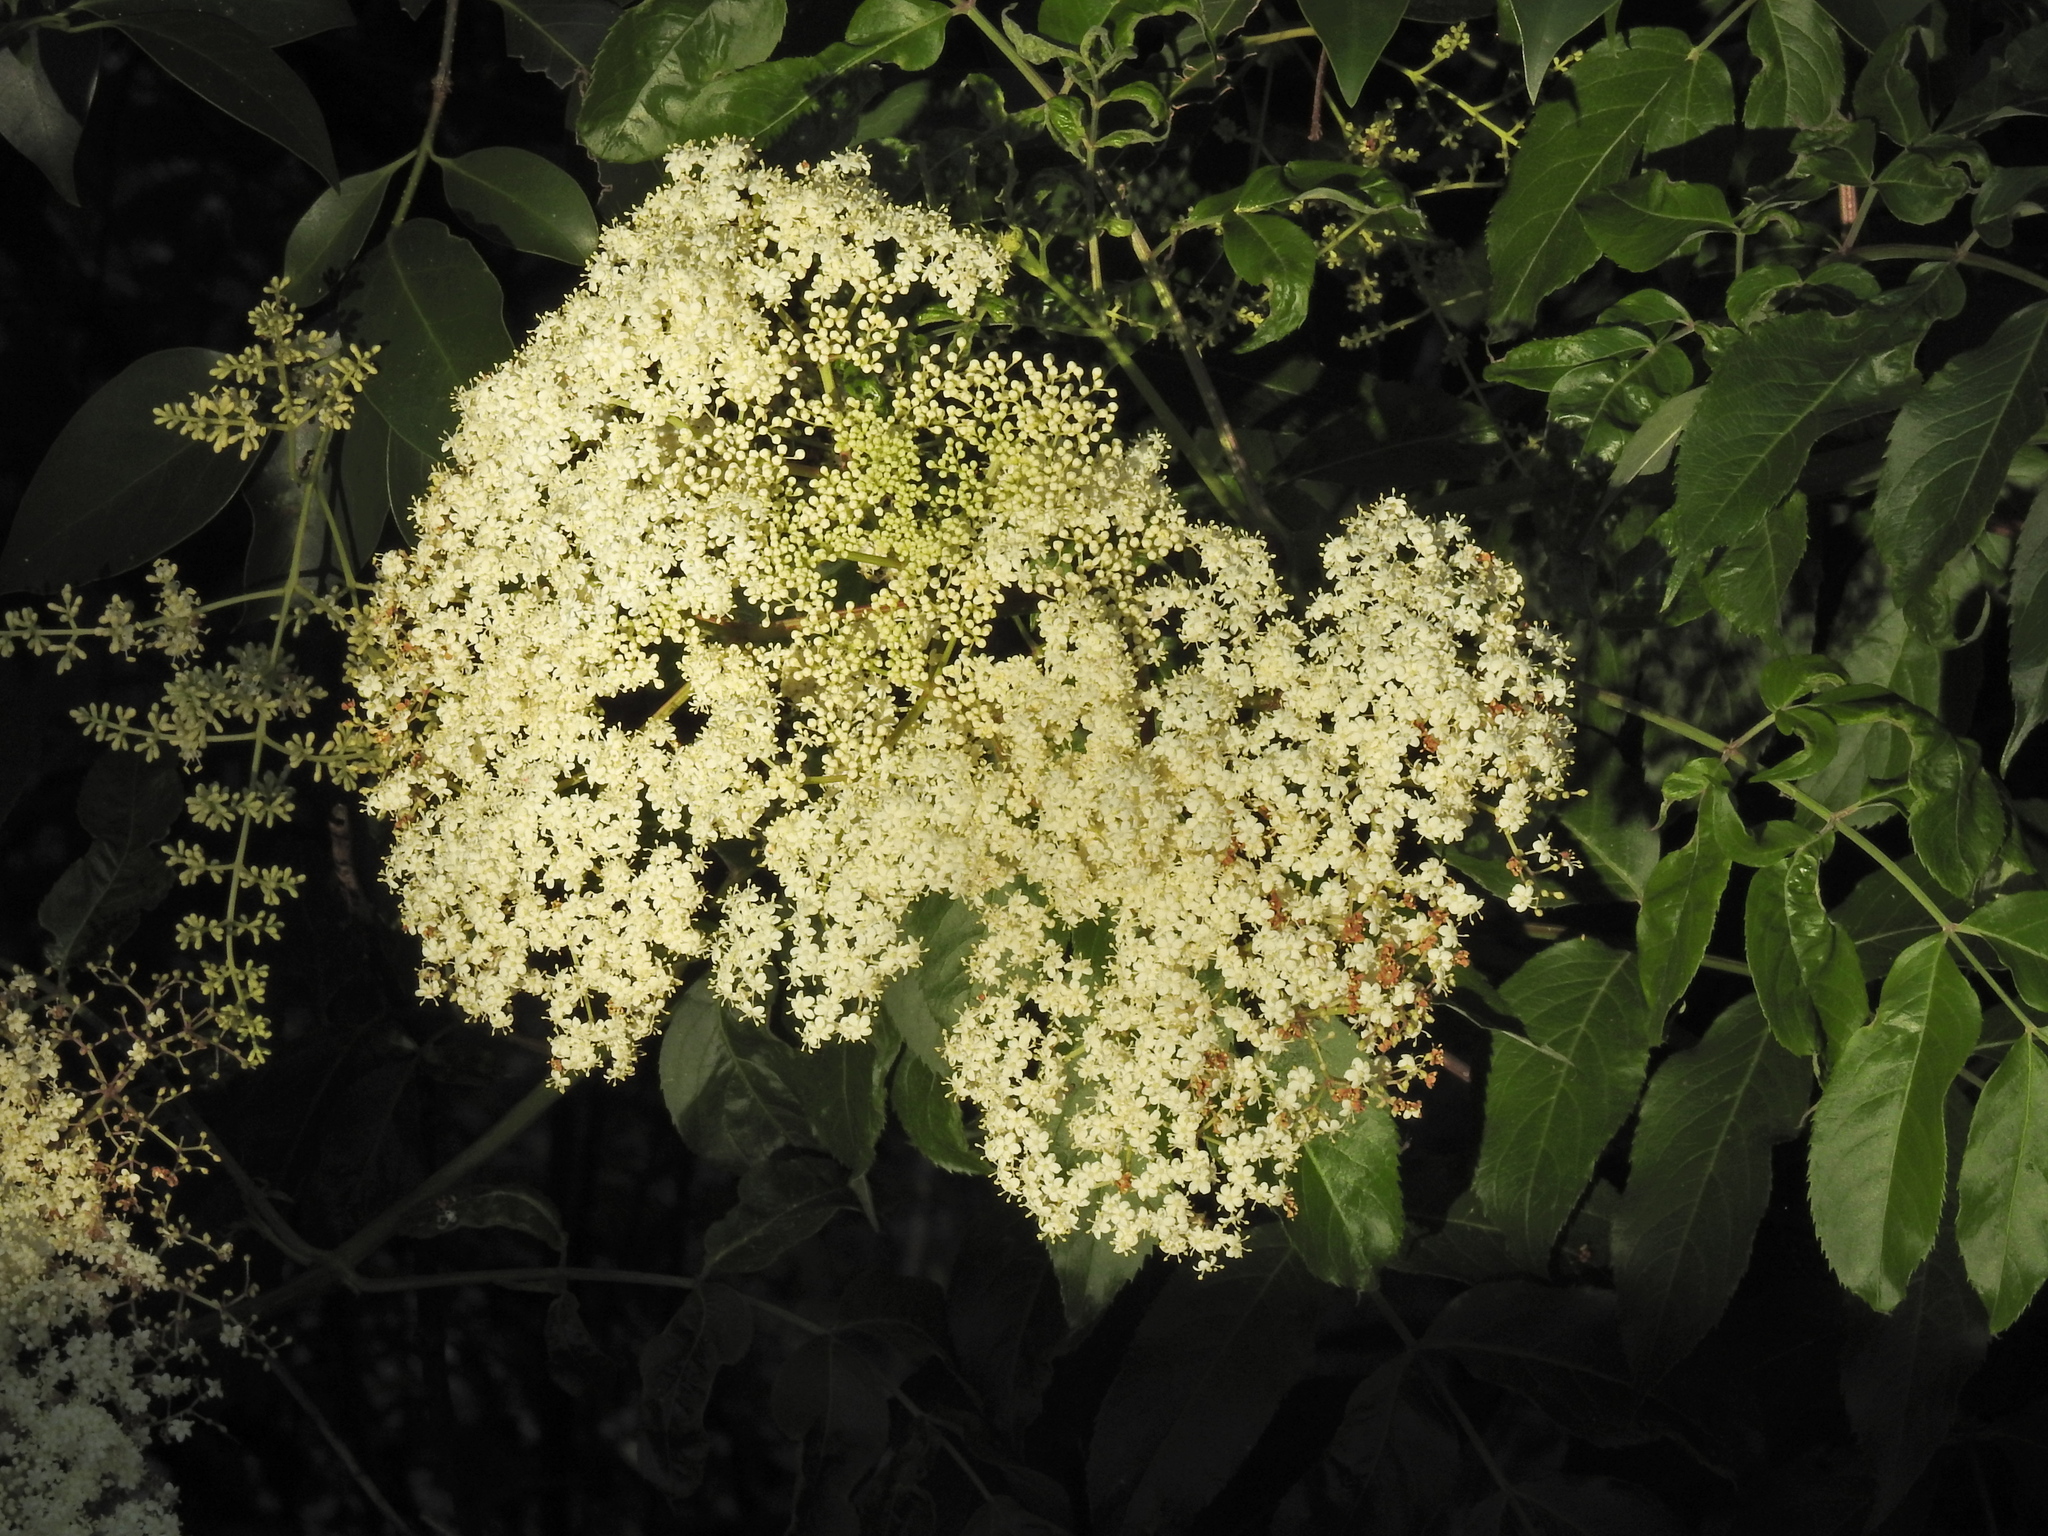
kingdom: Plantae
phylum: Tracheophyta
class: Magnoliopsida
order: Dipsacales
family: Viburnaceae
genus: Sambucus
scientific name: Sambucus canadensis
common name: American elder
